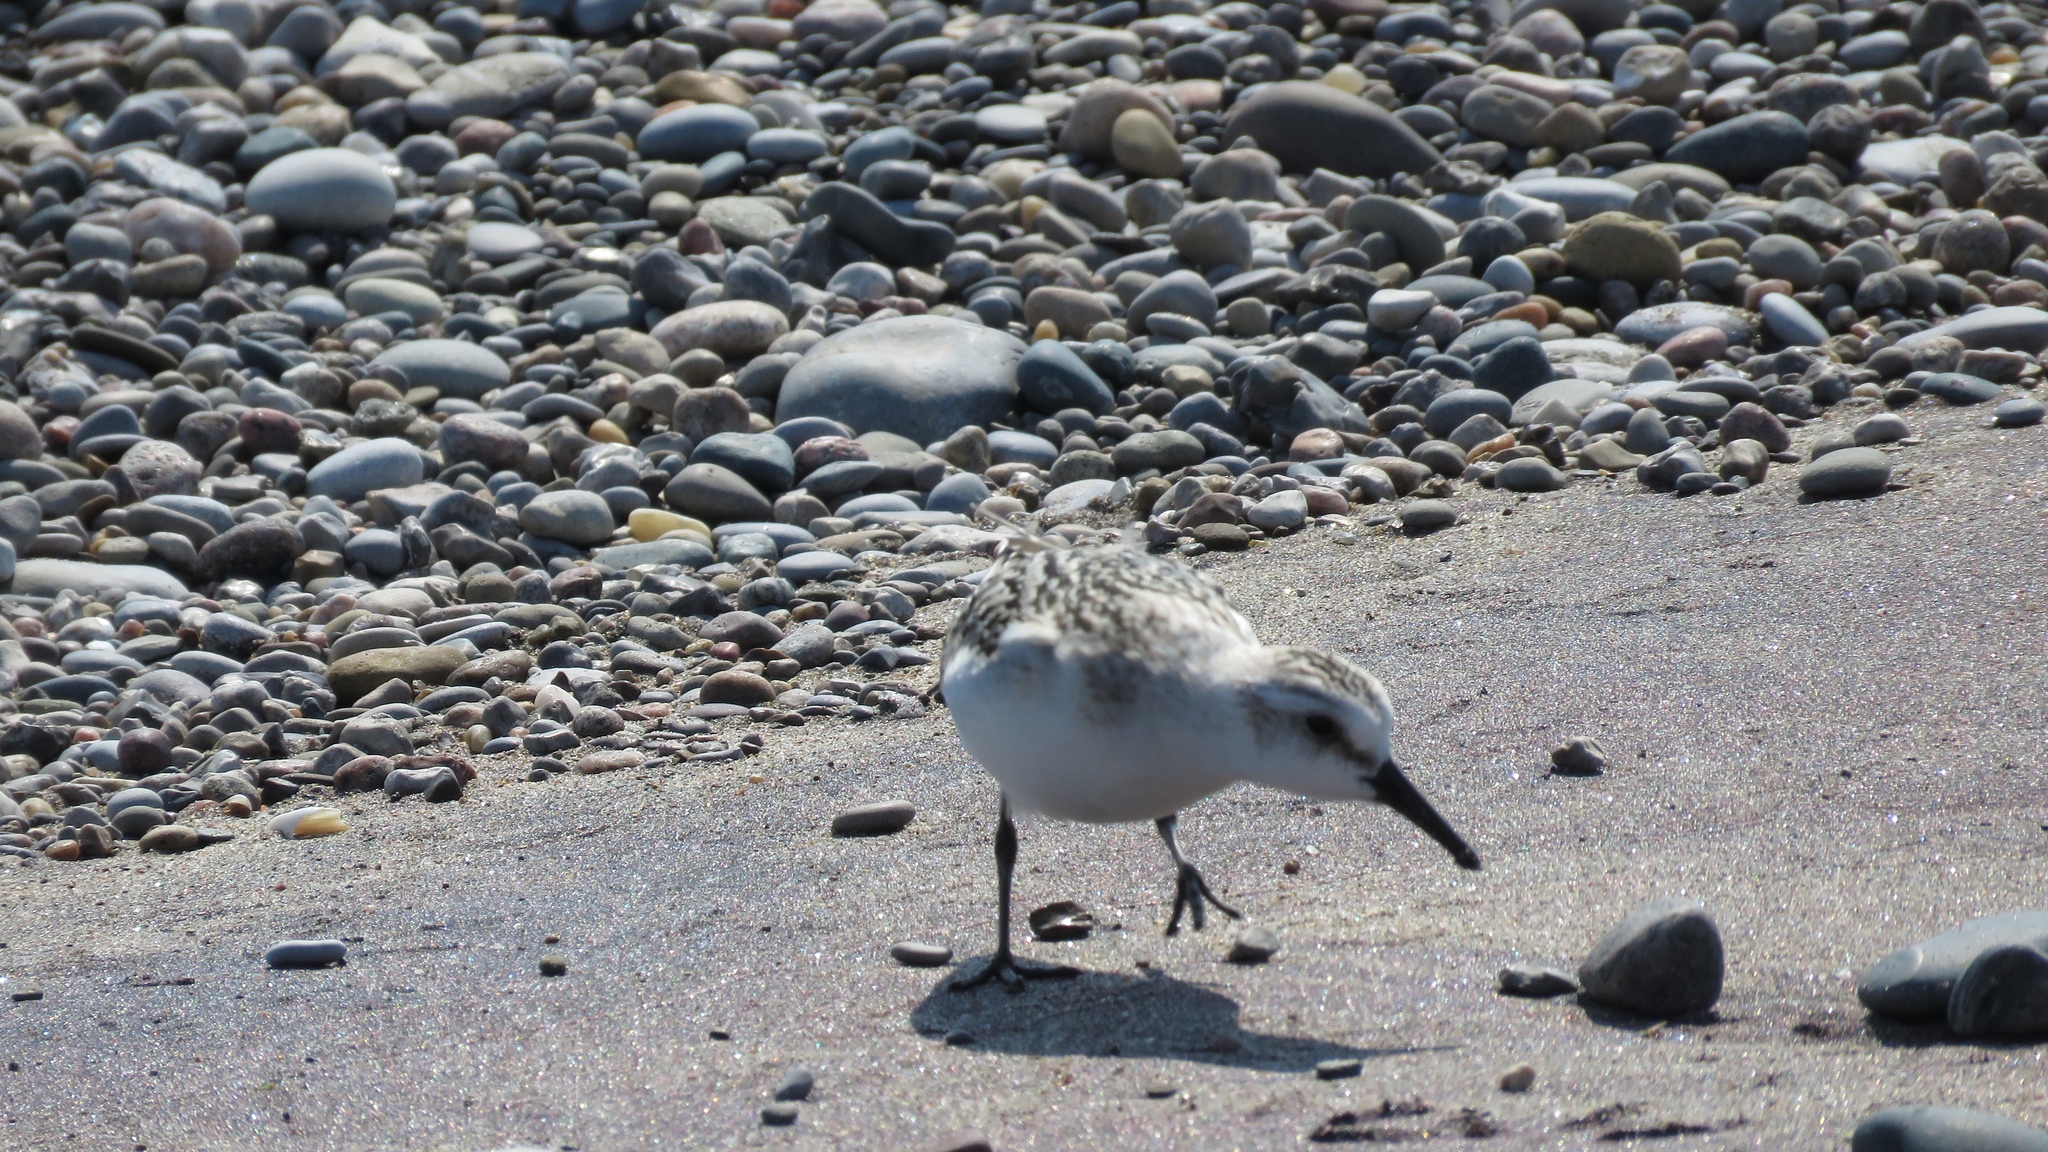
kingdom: Animalia
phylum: Chordata
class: Aves
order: Charadriiformes
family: Scolopacidae
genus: Calidris
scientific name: Calidris alba
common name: Sanderling
